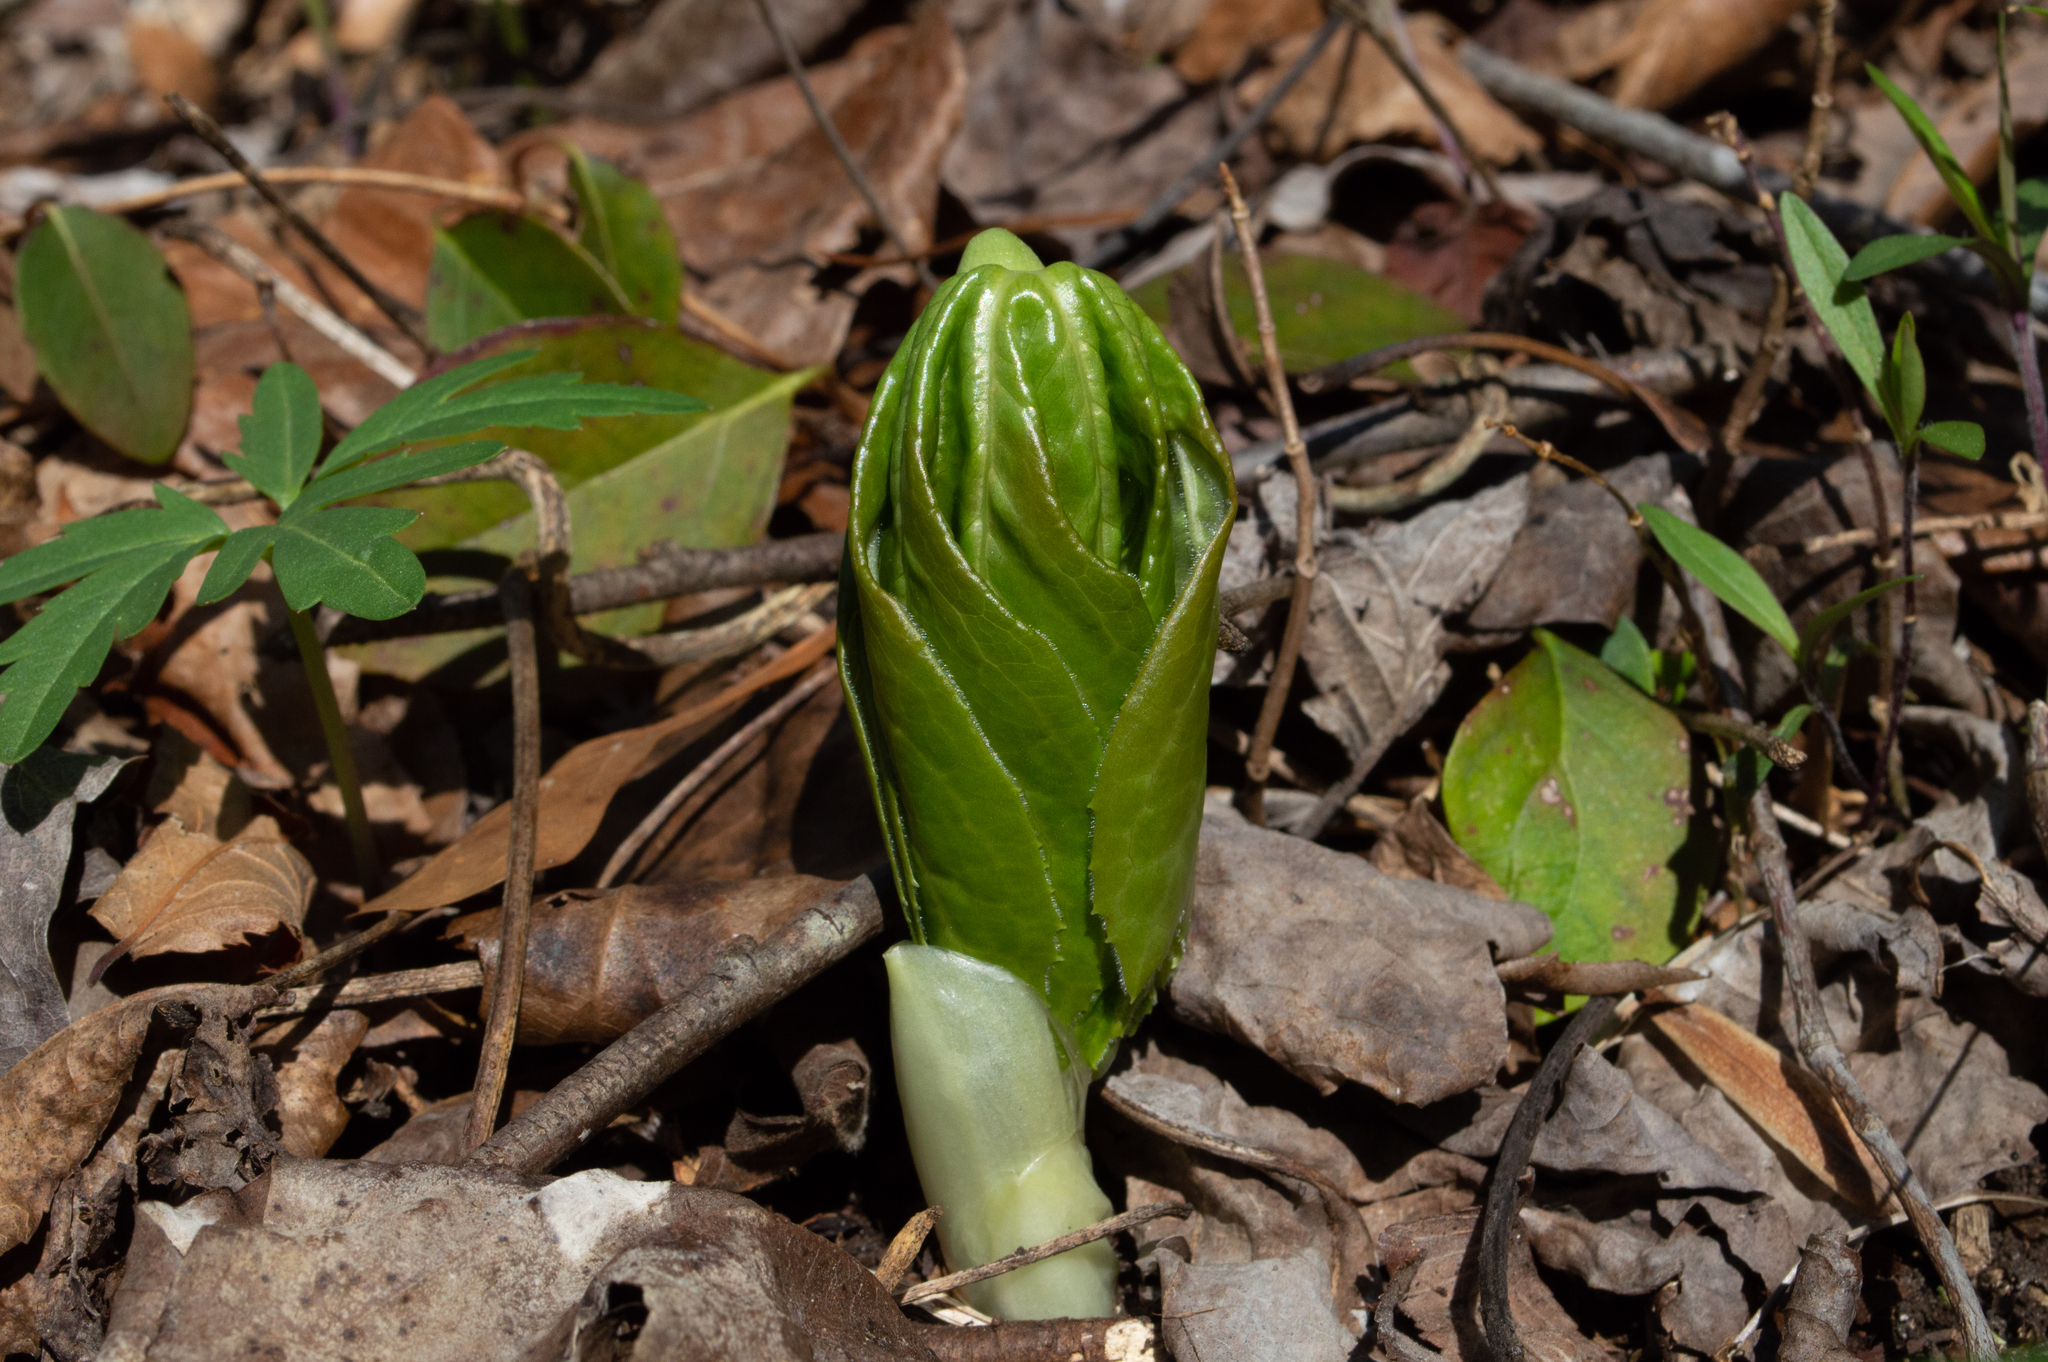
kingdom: Plantae
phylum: Tracheophyta
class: Magnoliopsida
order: Ranunculales
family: Berberidaceae
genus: Podophyllum
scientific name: Podophyllum peltatum
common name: Wild mandrake
